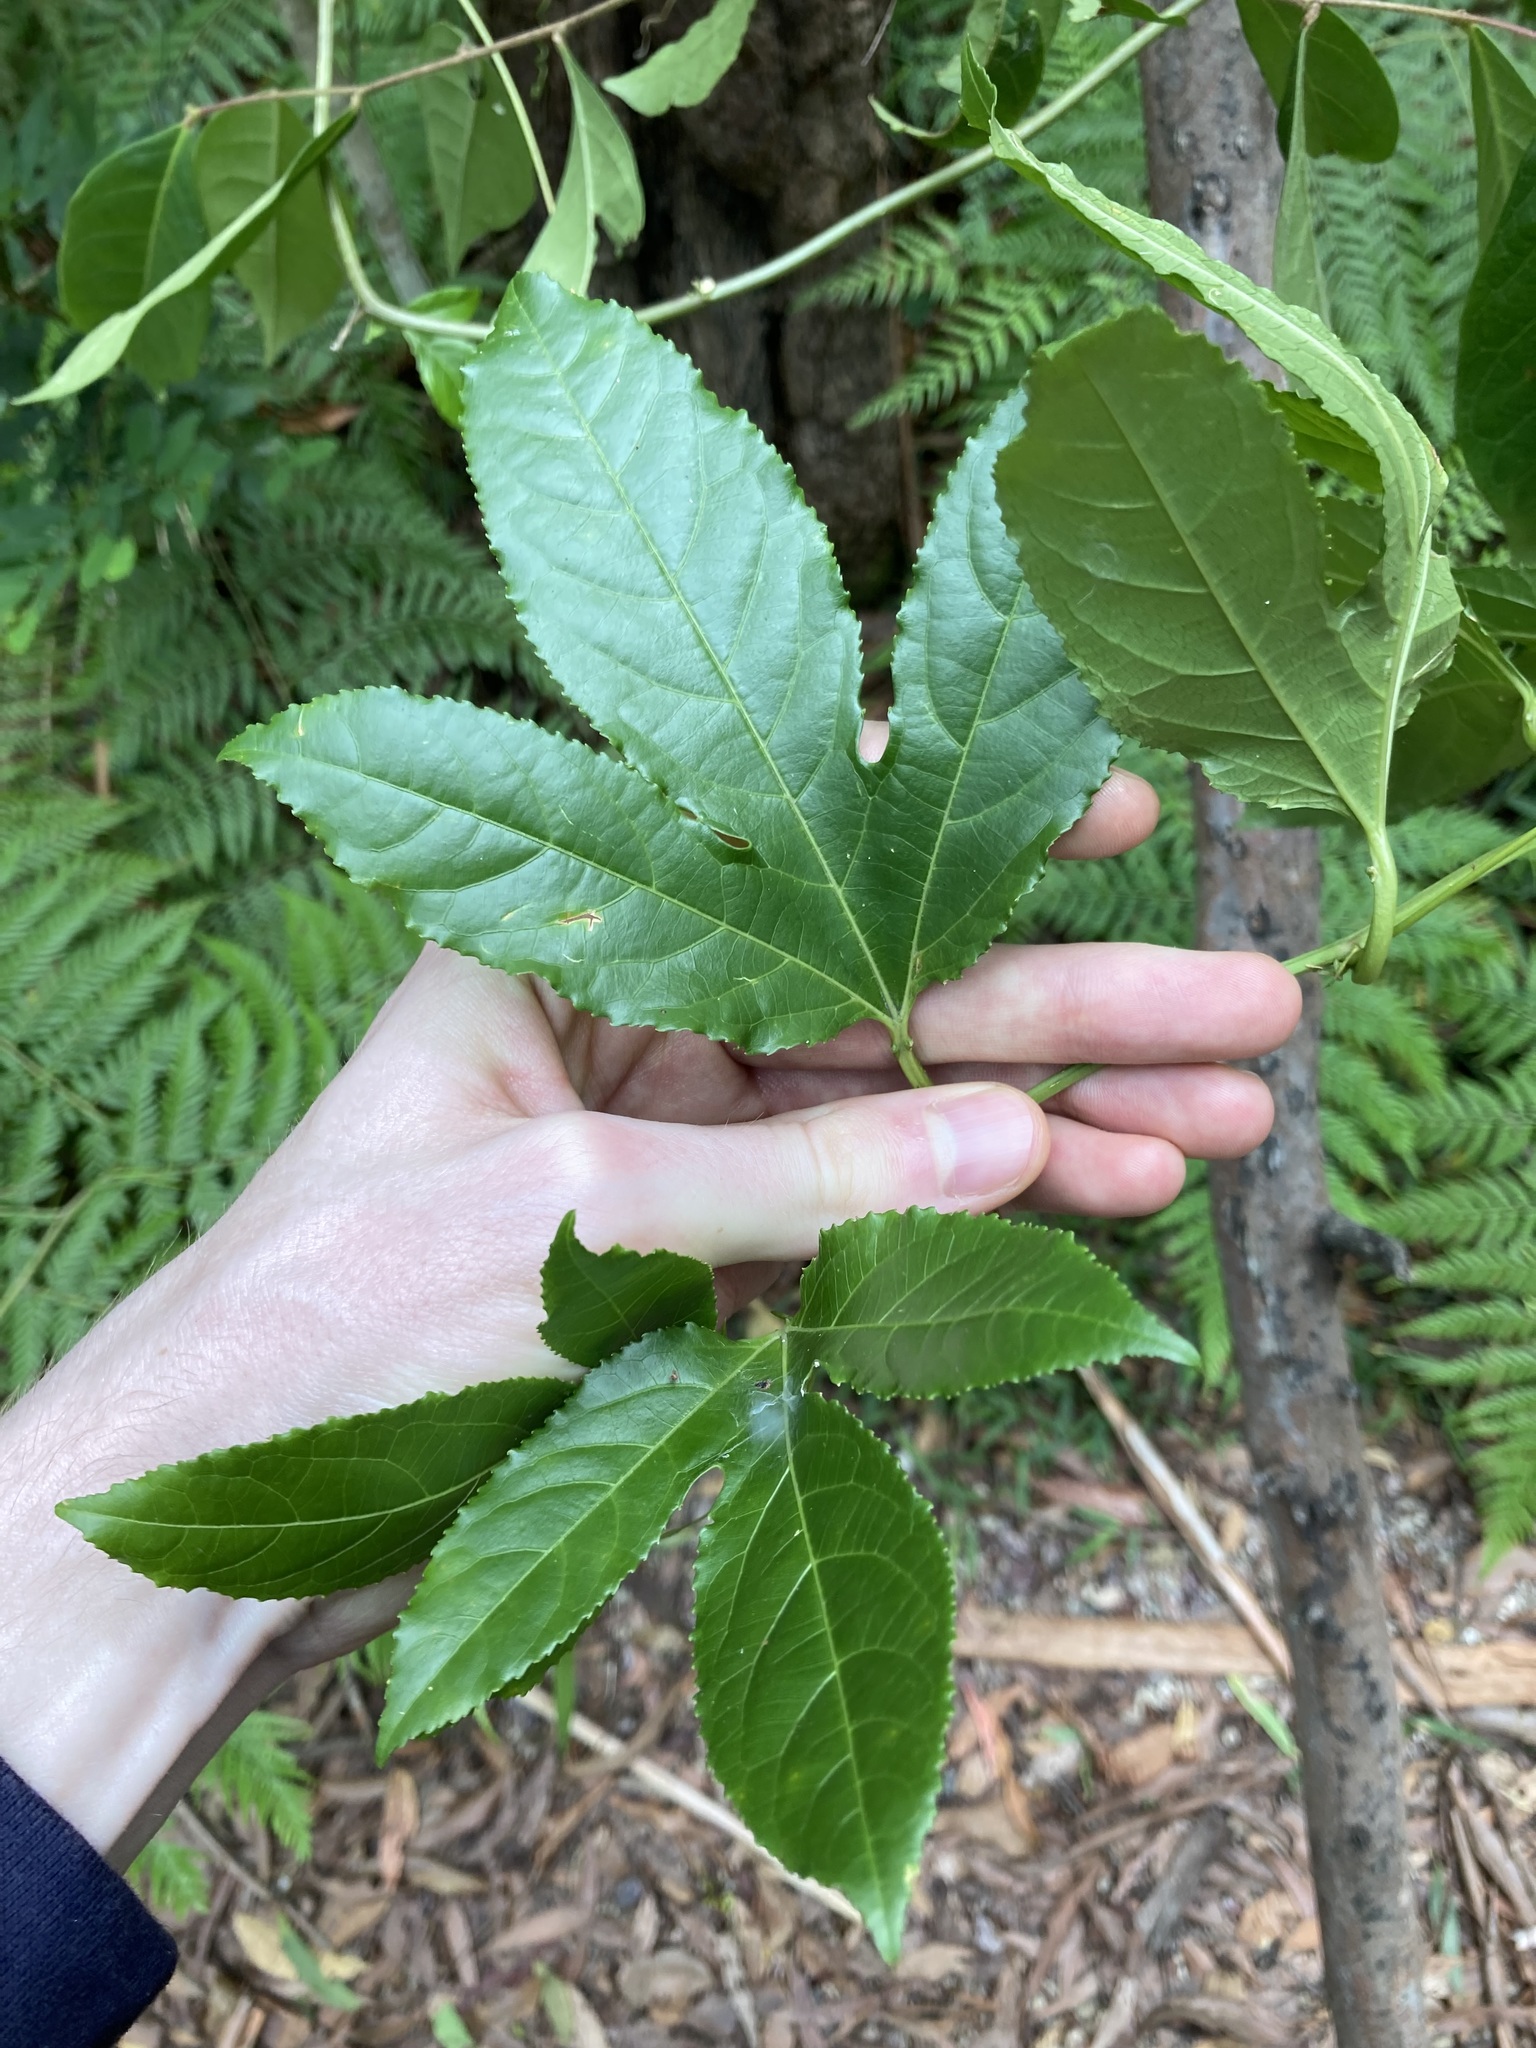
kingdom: Plantae
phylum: Tracheophyta
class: Magnoliopsida
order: Malpighiales
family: Passifloraceae
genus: Passiflora
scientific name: Passiflora edulis
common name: Purple granadilla
